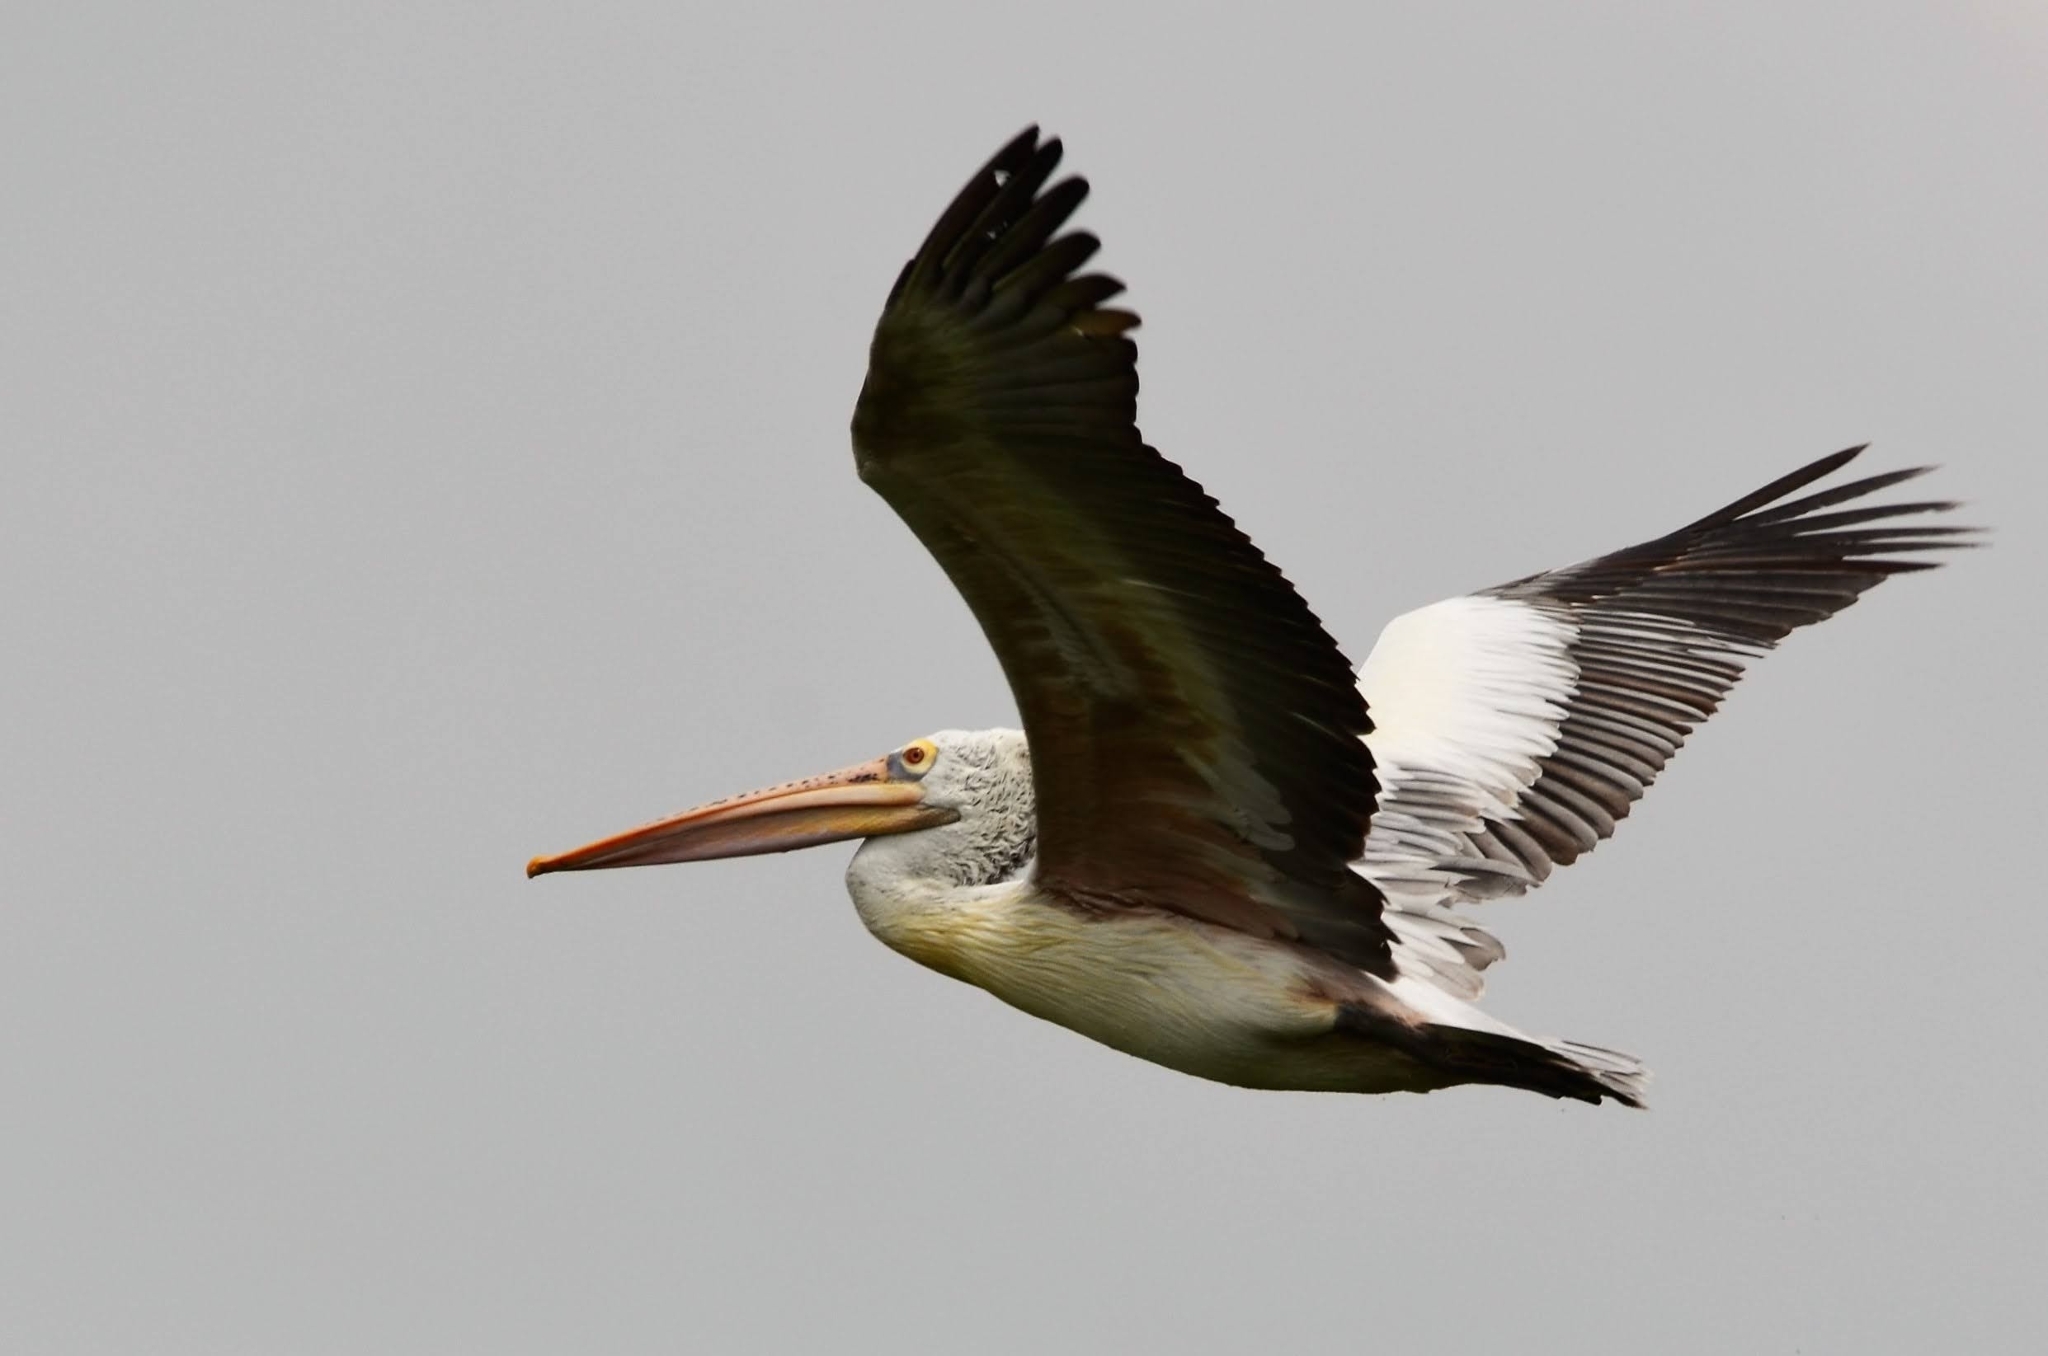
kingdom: Animalia
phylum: Chordata
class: Aves
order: Pelecaniformes
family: Pelecanidae
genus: Pelecanus
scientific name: Pelecanus philippensis
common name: Spot-billed pelican
